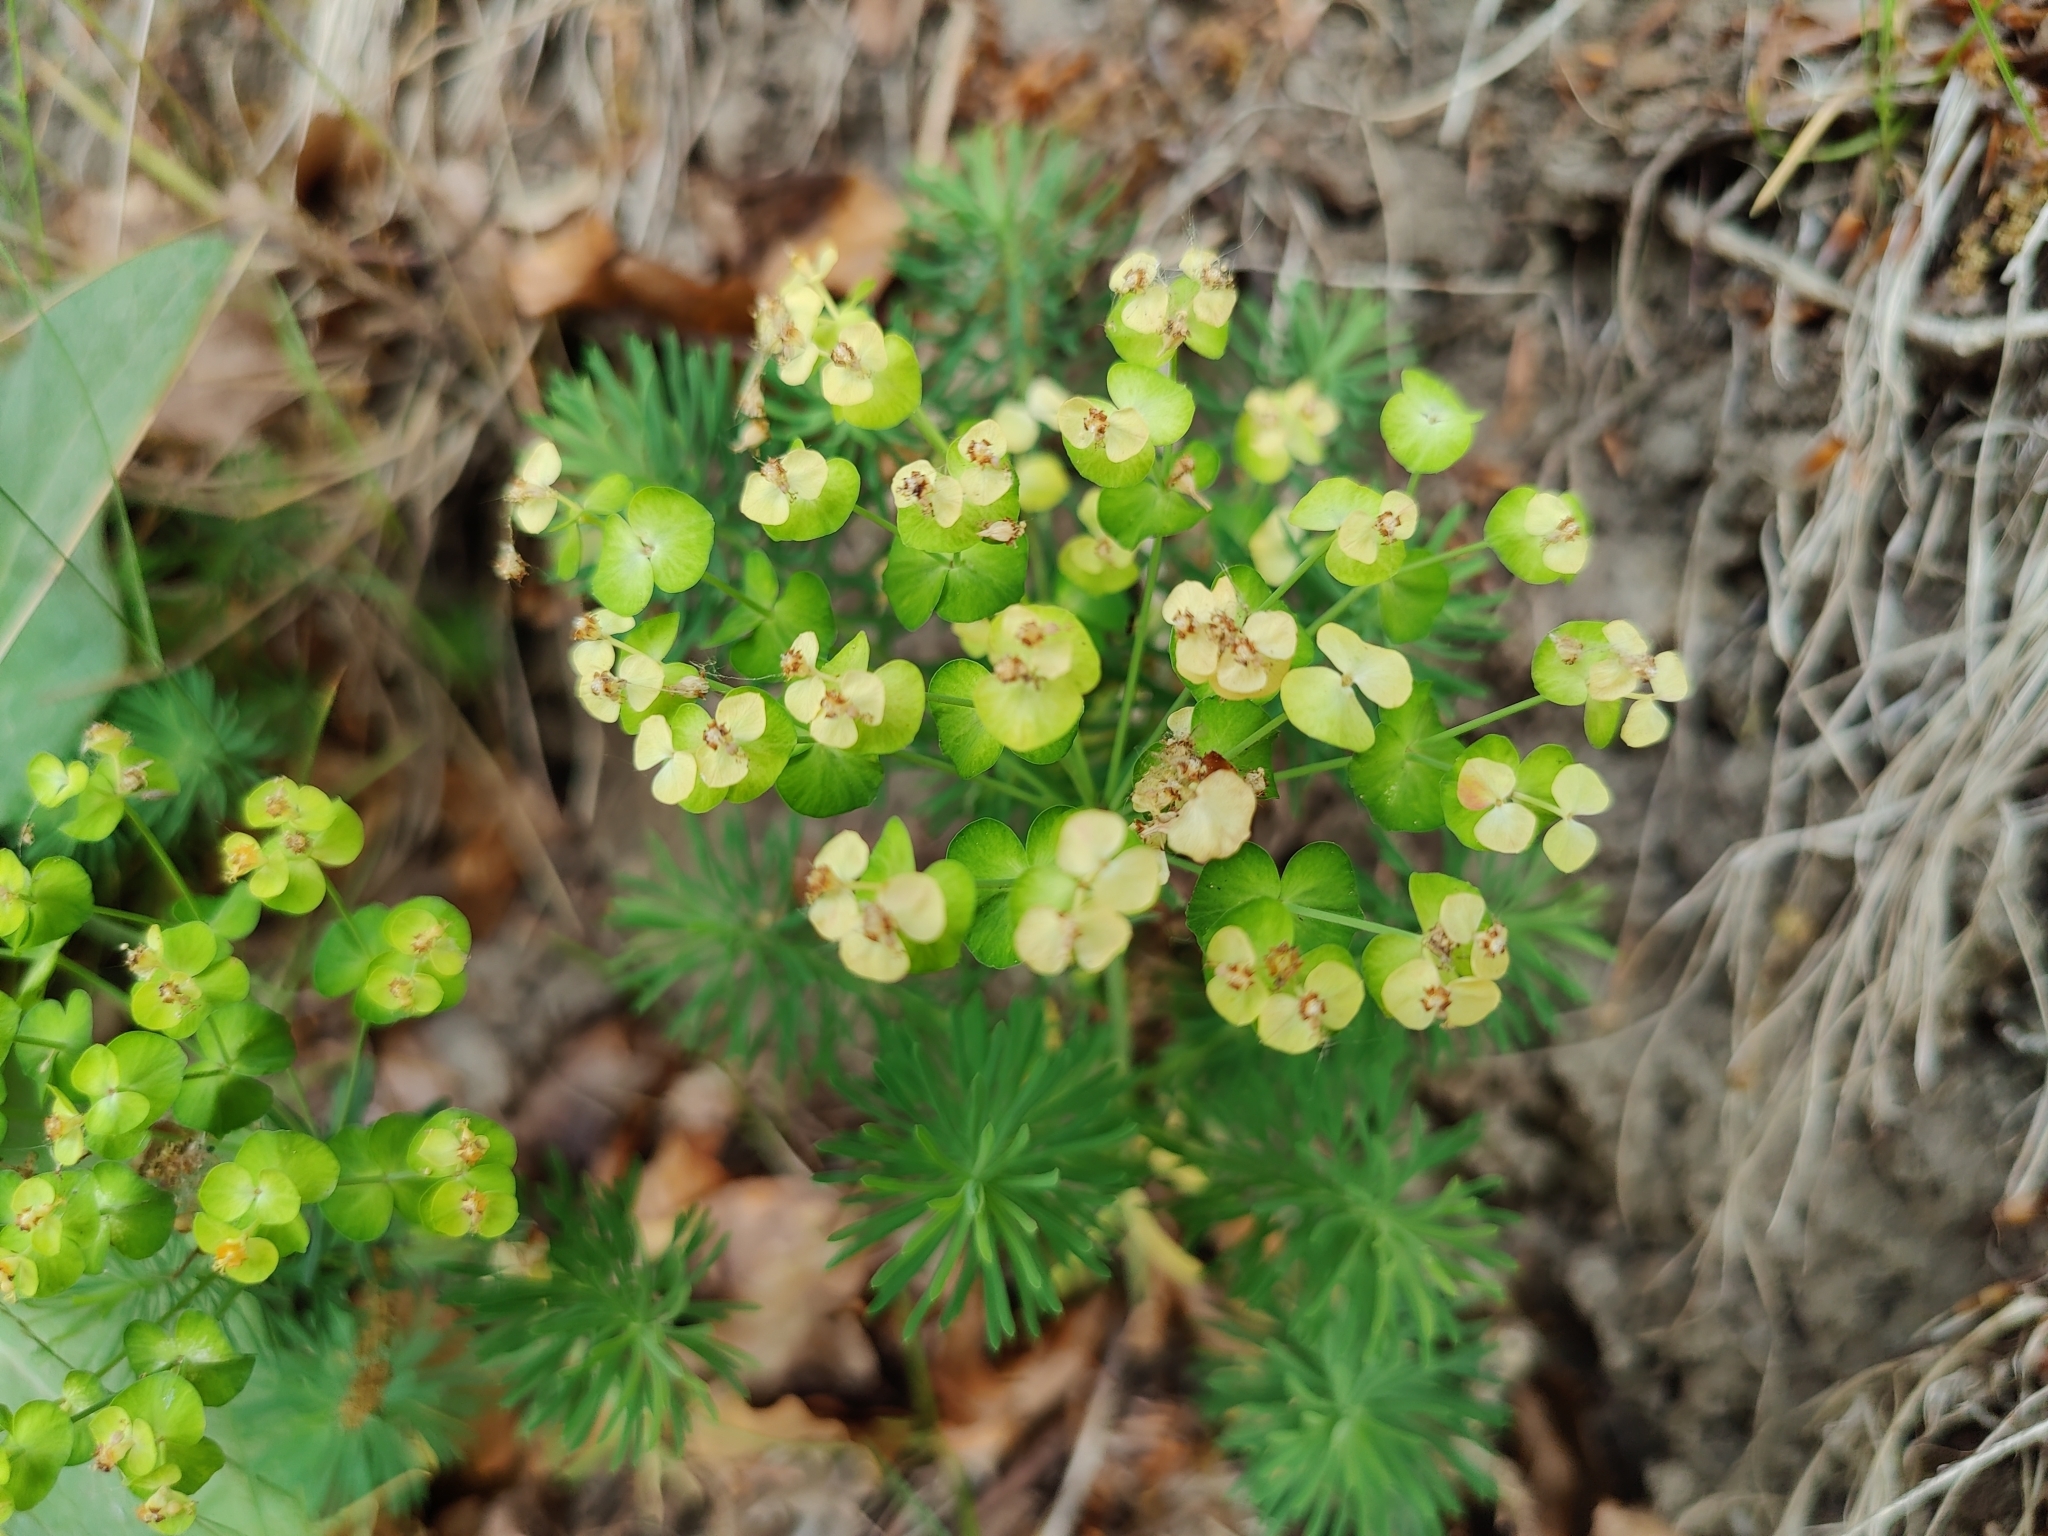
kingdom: Plantae
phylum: Tracheophyta
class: Magnoliopsida
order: Malpighiales
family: Euphorbiaceae
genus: Euphorbia
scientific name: Euphorbia cyparissias
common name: Cypress spurge
